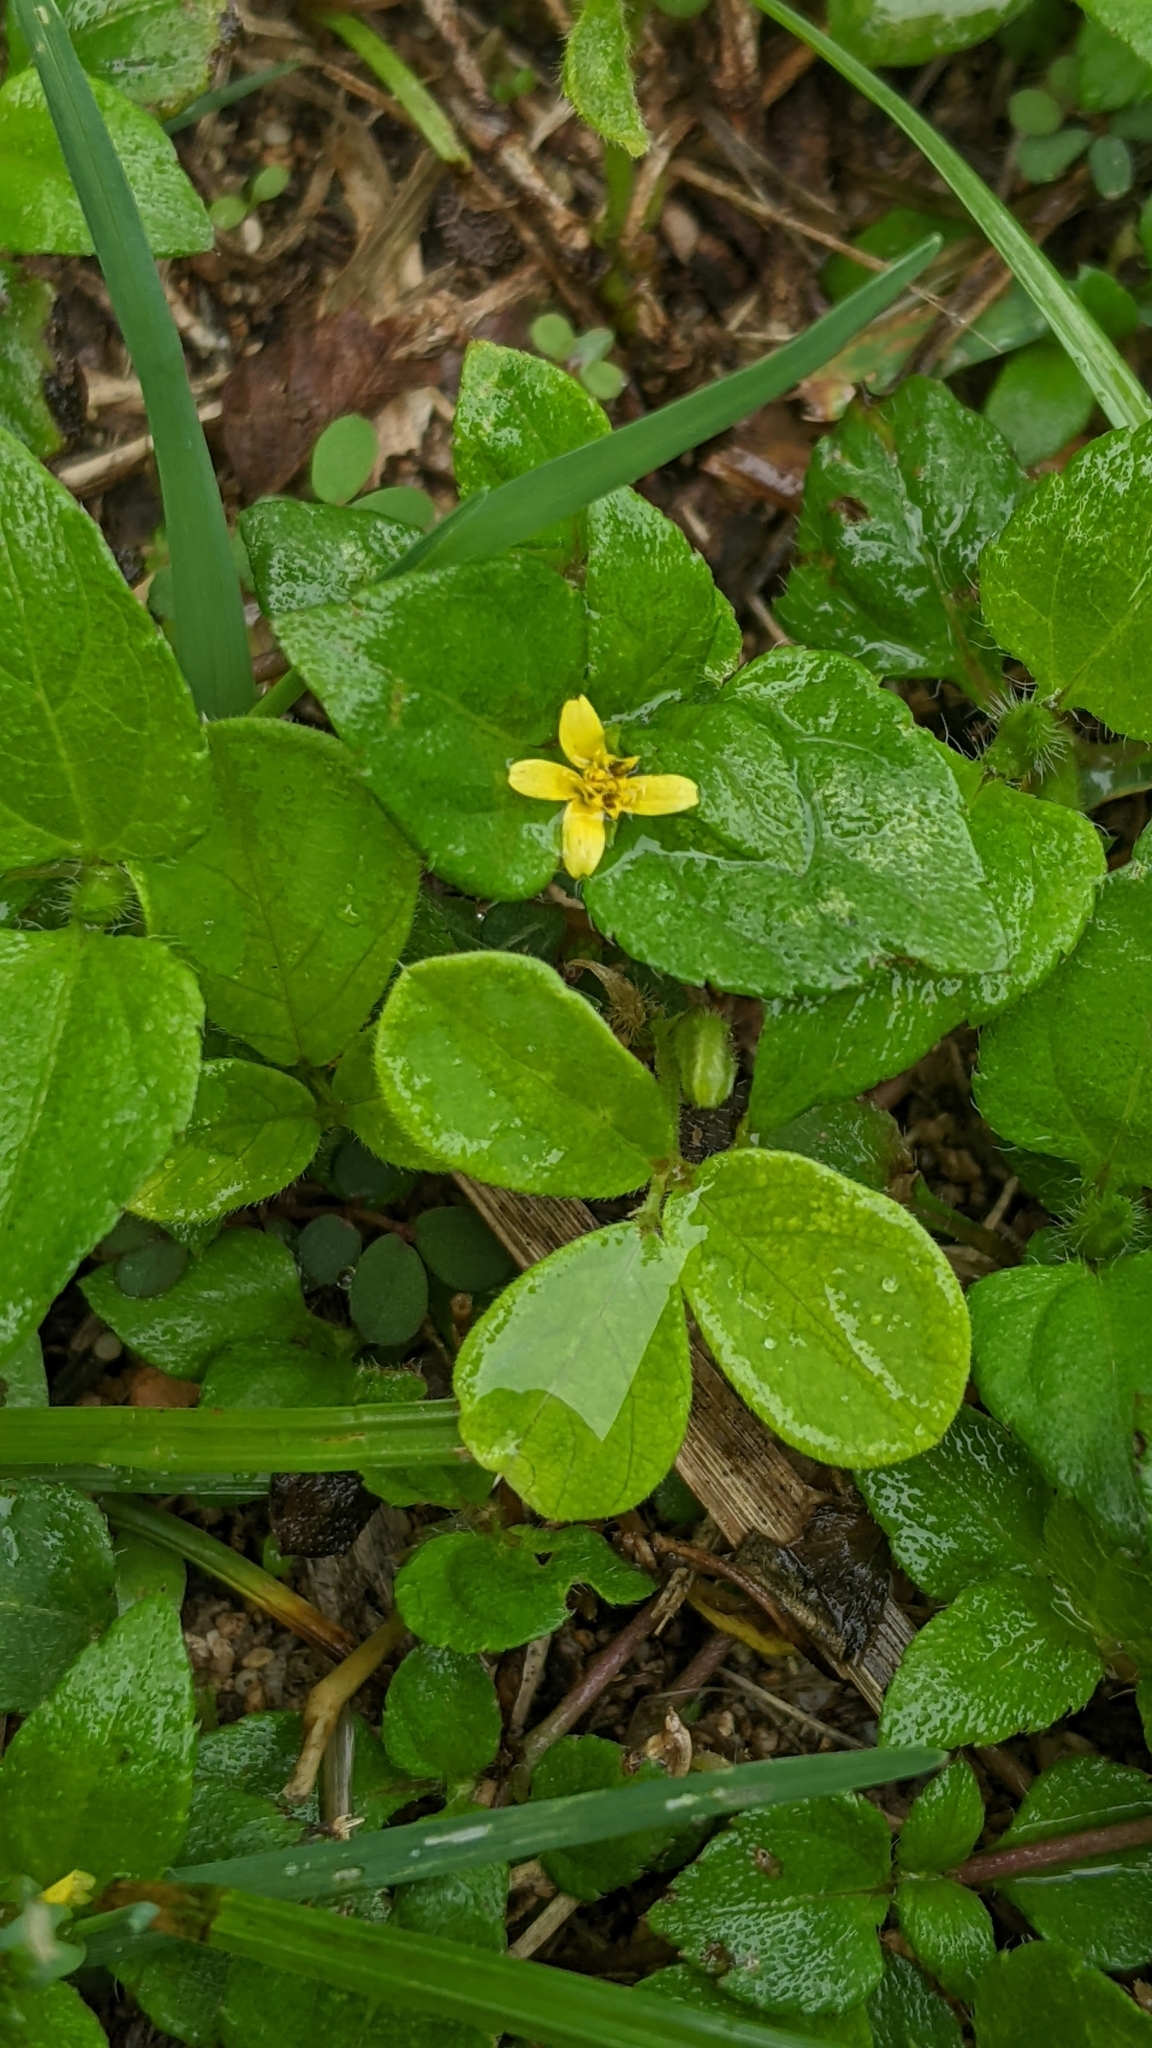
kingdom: Plantae
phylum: Tracheophyta
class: Magnoliopsida
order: Asterales
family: Asteraceae
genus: Calyptocarpus
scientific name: Calyptocarpus vialis
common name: Straggler daisy
